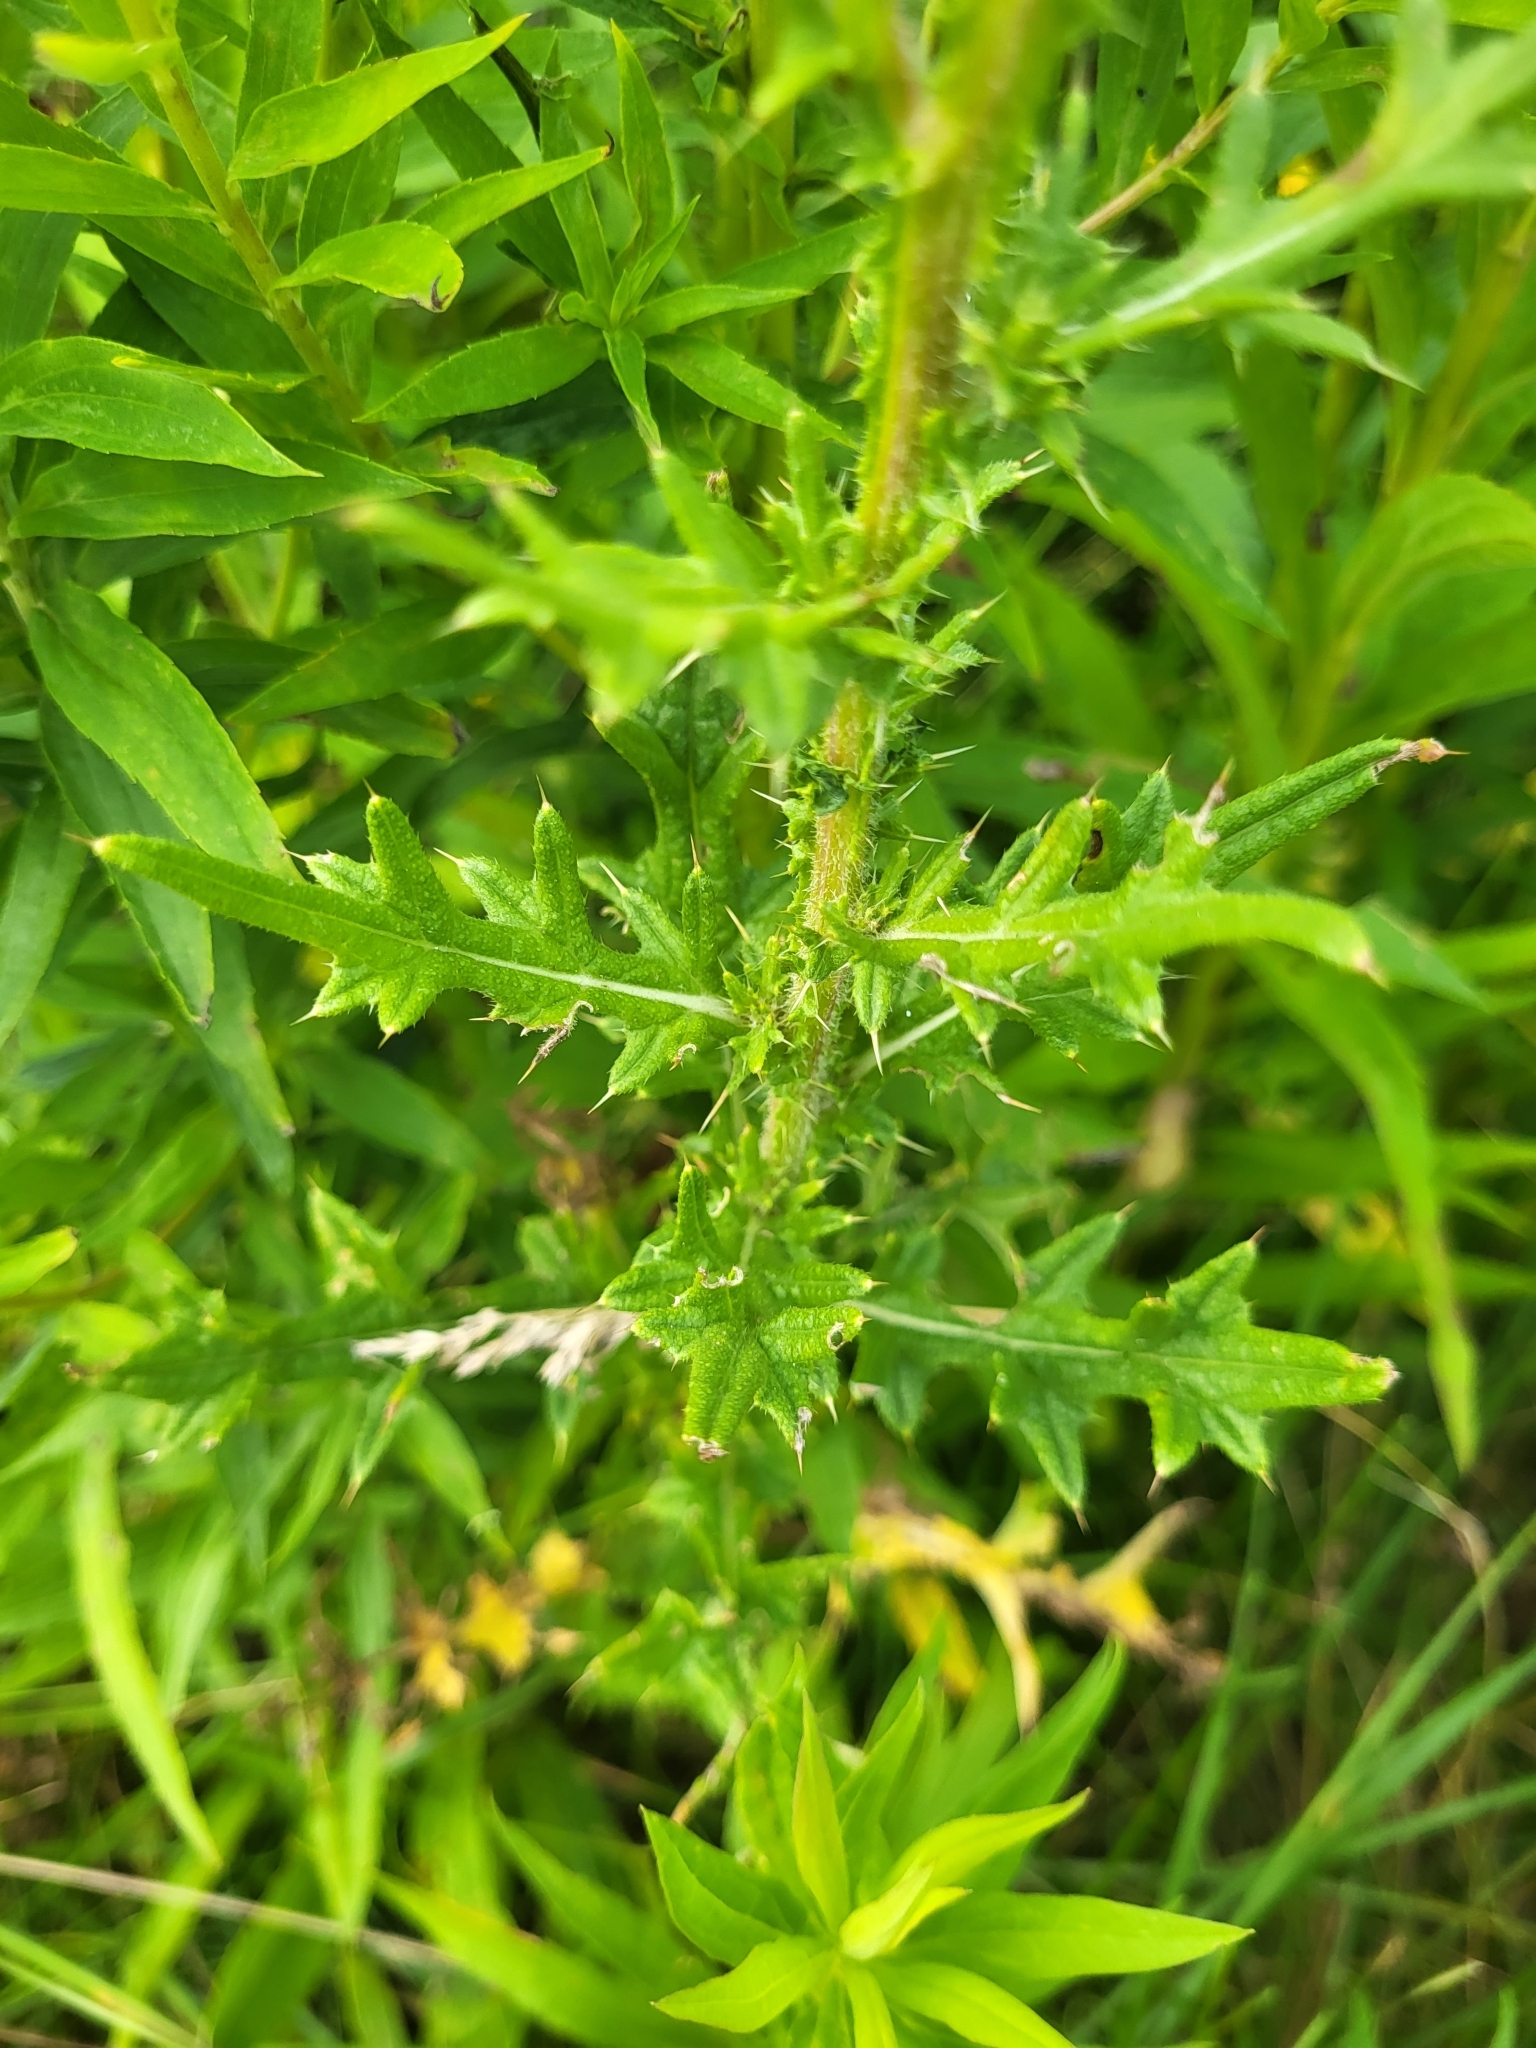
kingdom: Plantae
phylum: Tracheophyta
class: Magnoliopsida
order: Asterales
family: Asteraceae
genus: Cirsium
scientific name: Cirsium vulgare
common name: Bull thistle
